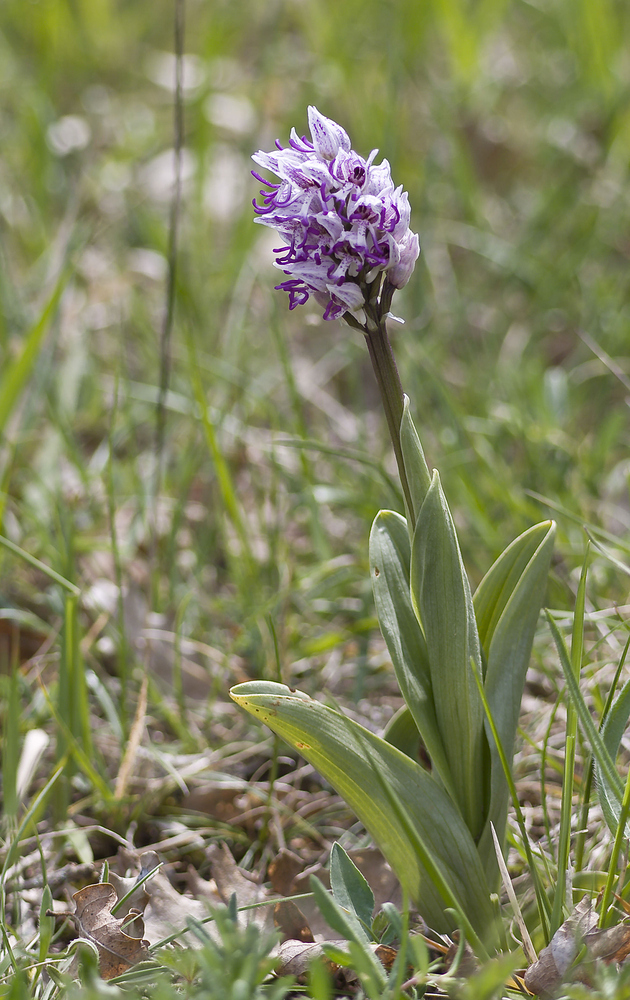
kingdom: Plantae
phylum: Tracheophyta
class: Liliopsida
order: Asparagales
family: Orchidaceae
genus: Orchis
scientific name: Orchis simia
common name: Monkey orchid
